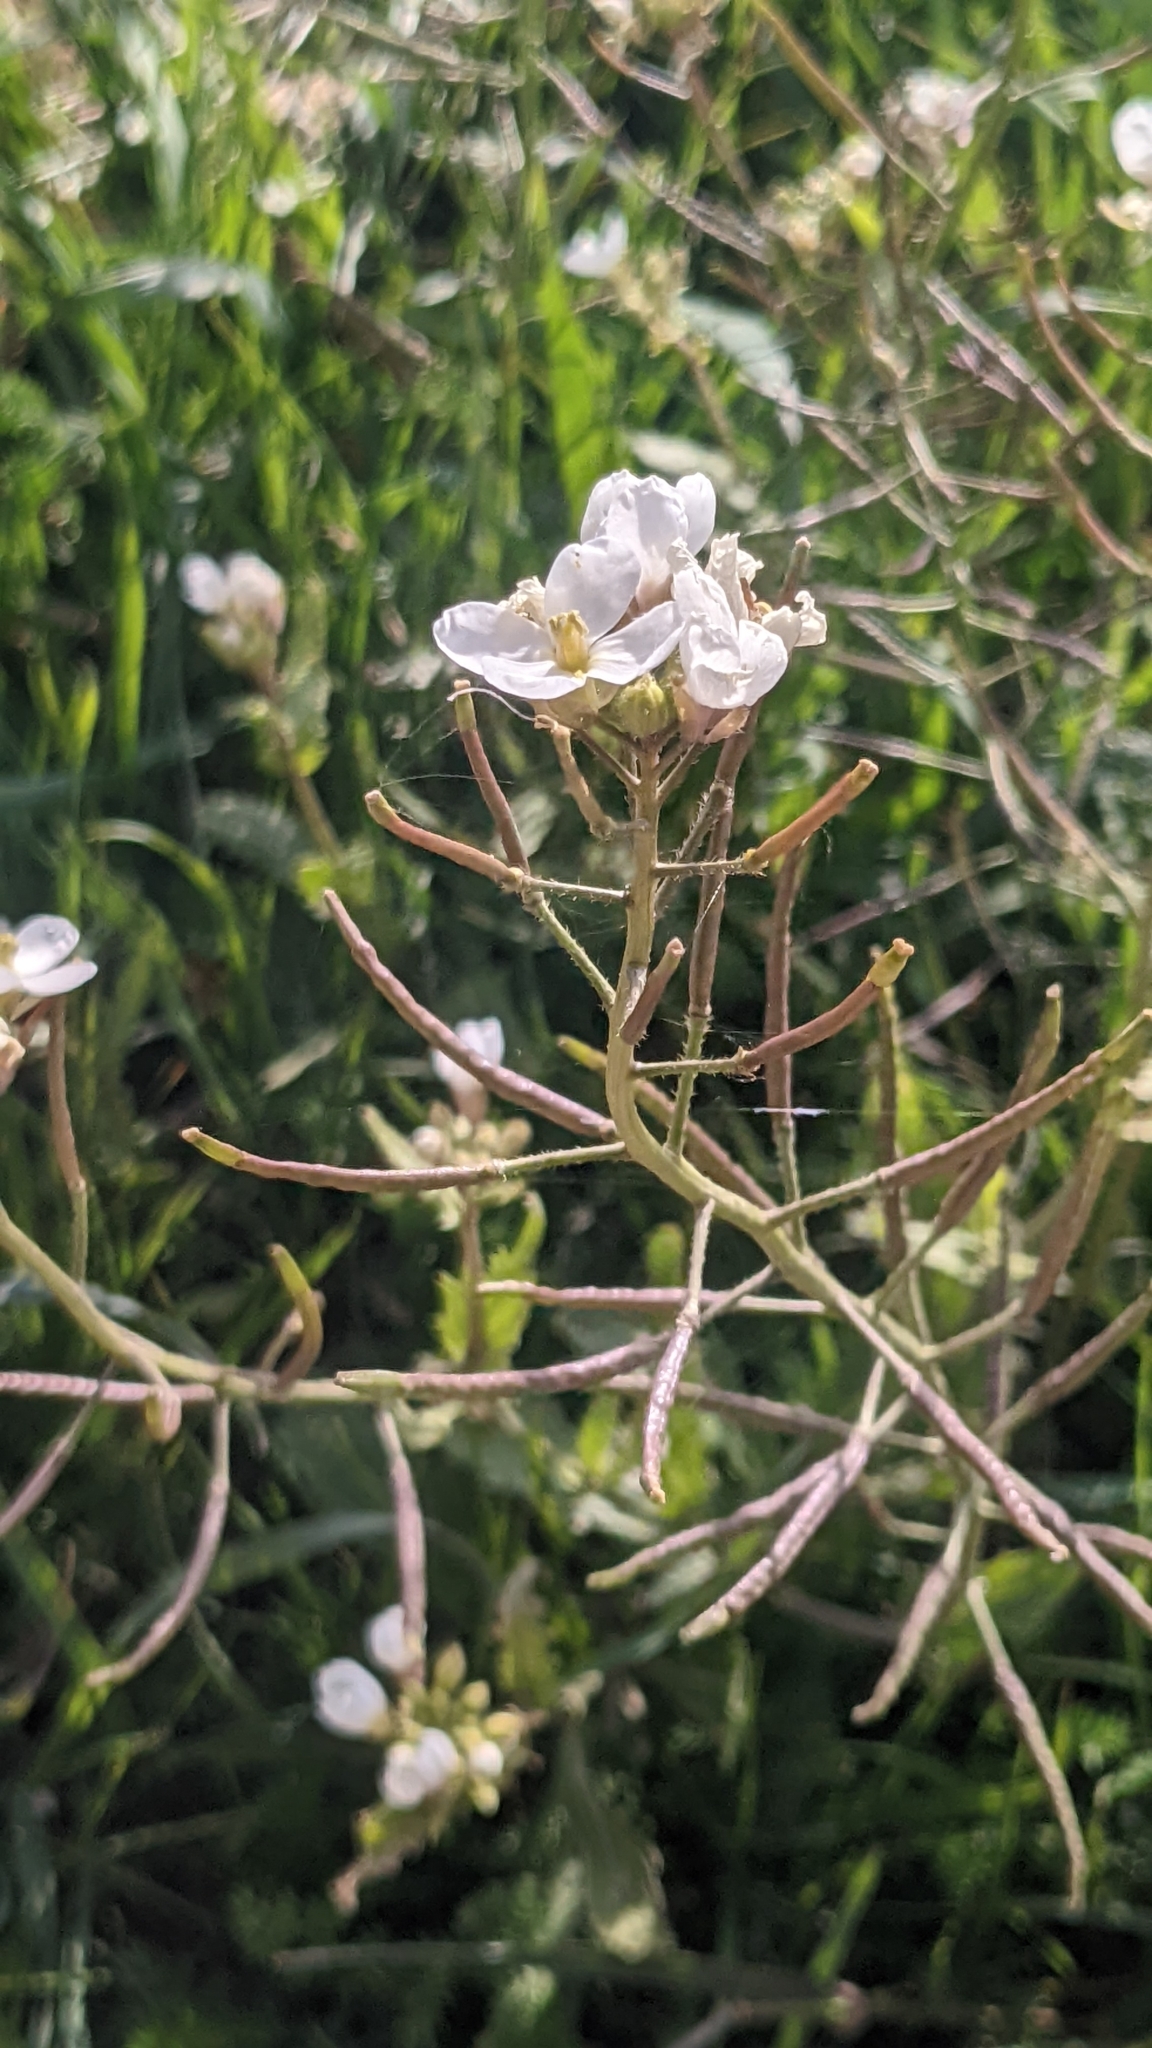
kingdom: Plantae
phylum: Tracheophyta
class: Magnoliopsida
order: Brassicales
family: Brassicaceae
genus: Diplotaxis
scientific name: Diplotaxis erucoides
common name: White rocket
